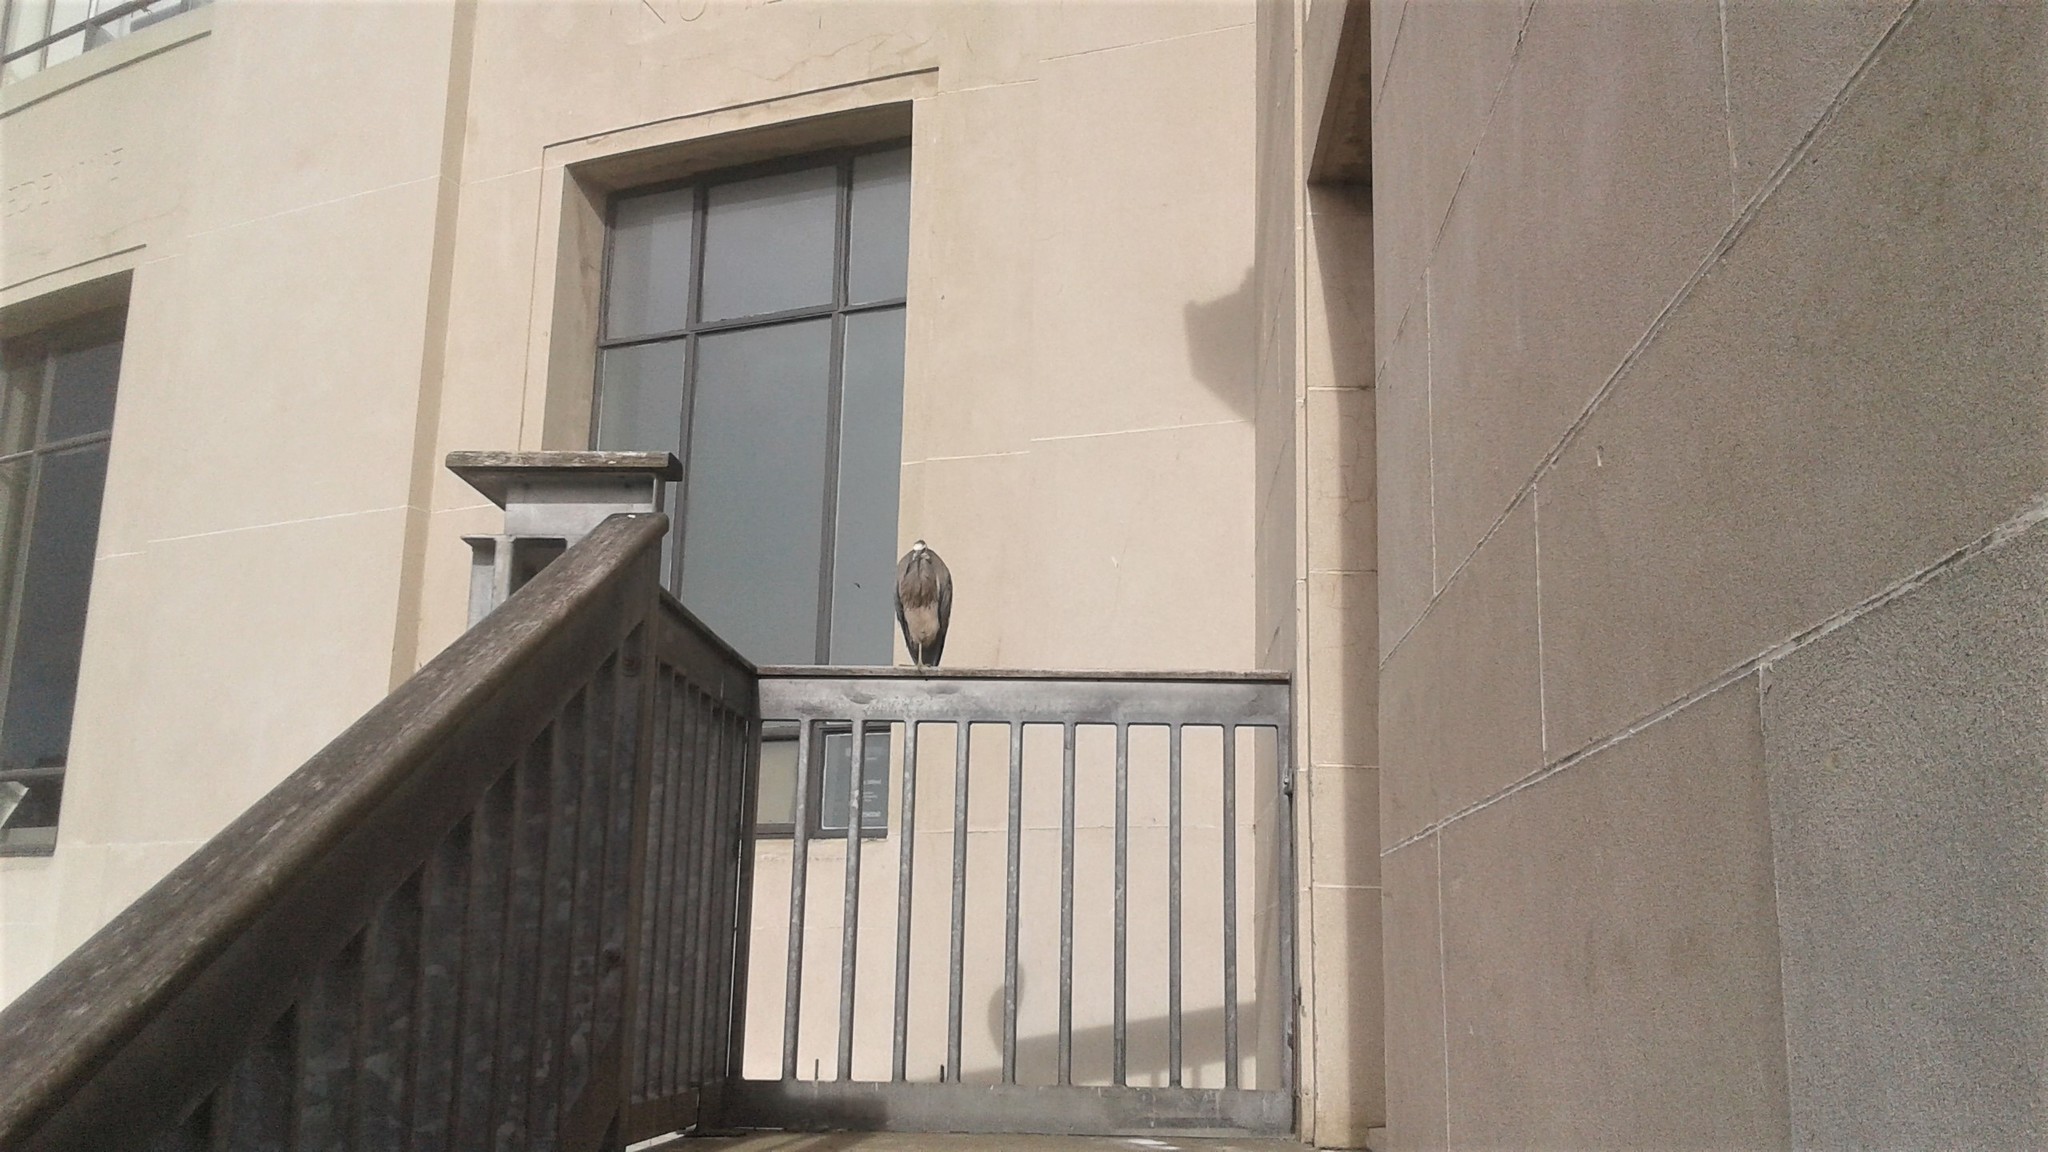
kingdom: Animalia
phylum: Chordata
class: Aves
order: Pelecaniformes
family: Ardeidae
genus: Egretta
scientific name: Egretta novaehollandiae
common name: White-faced heron
